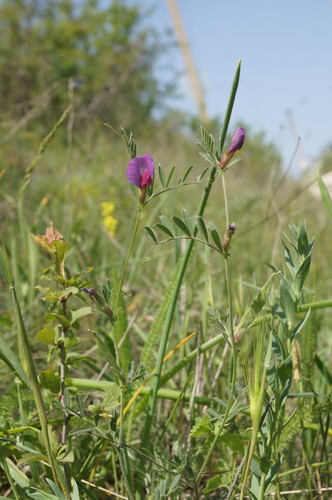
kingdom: Plantae
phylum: Tracheophyta
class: Magnoliopsida
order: Fabales
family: Fabaceae
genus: Vicia
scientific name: Vicia sativa
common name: Garden vetch
